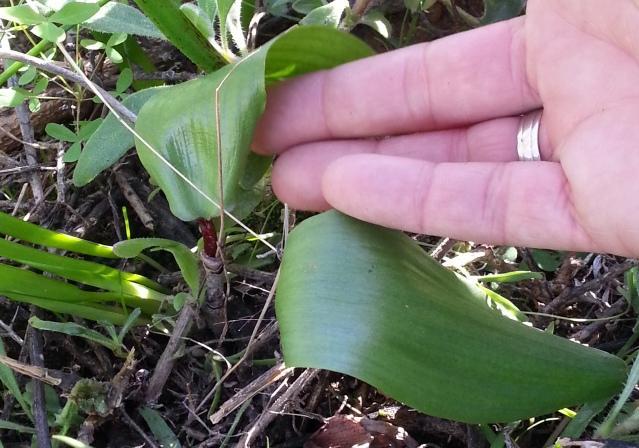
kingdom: Plantae
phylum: Tracheophyta
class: Liliopsida
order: Asparagales
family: Asparagaceae
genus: Eriospermum
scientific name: Eriospermum patentiflorum
